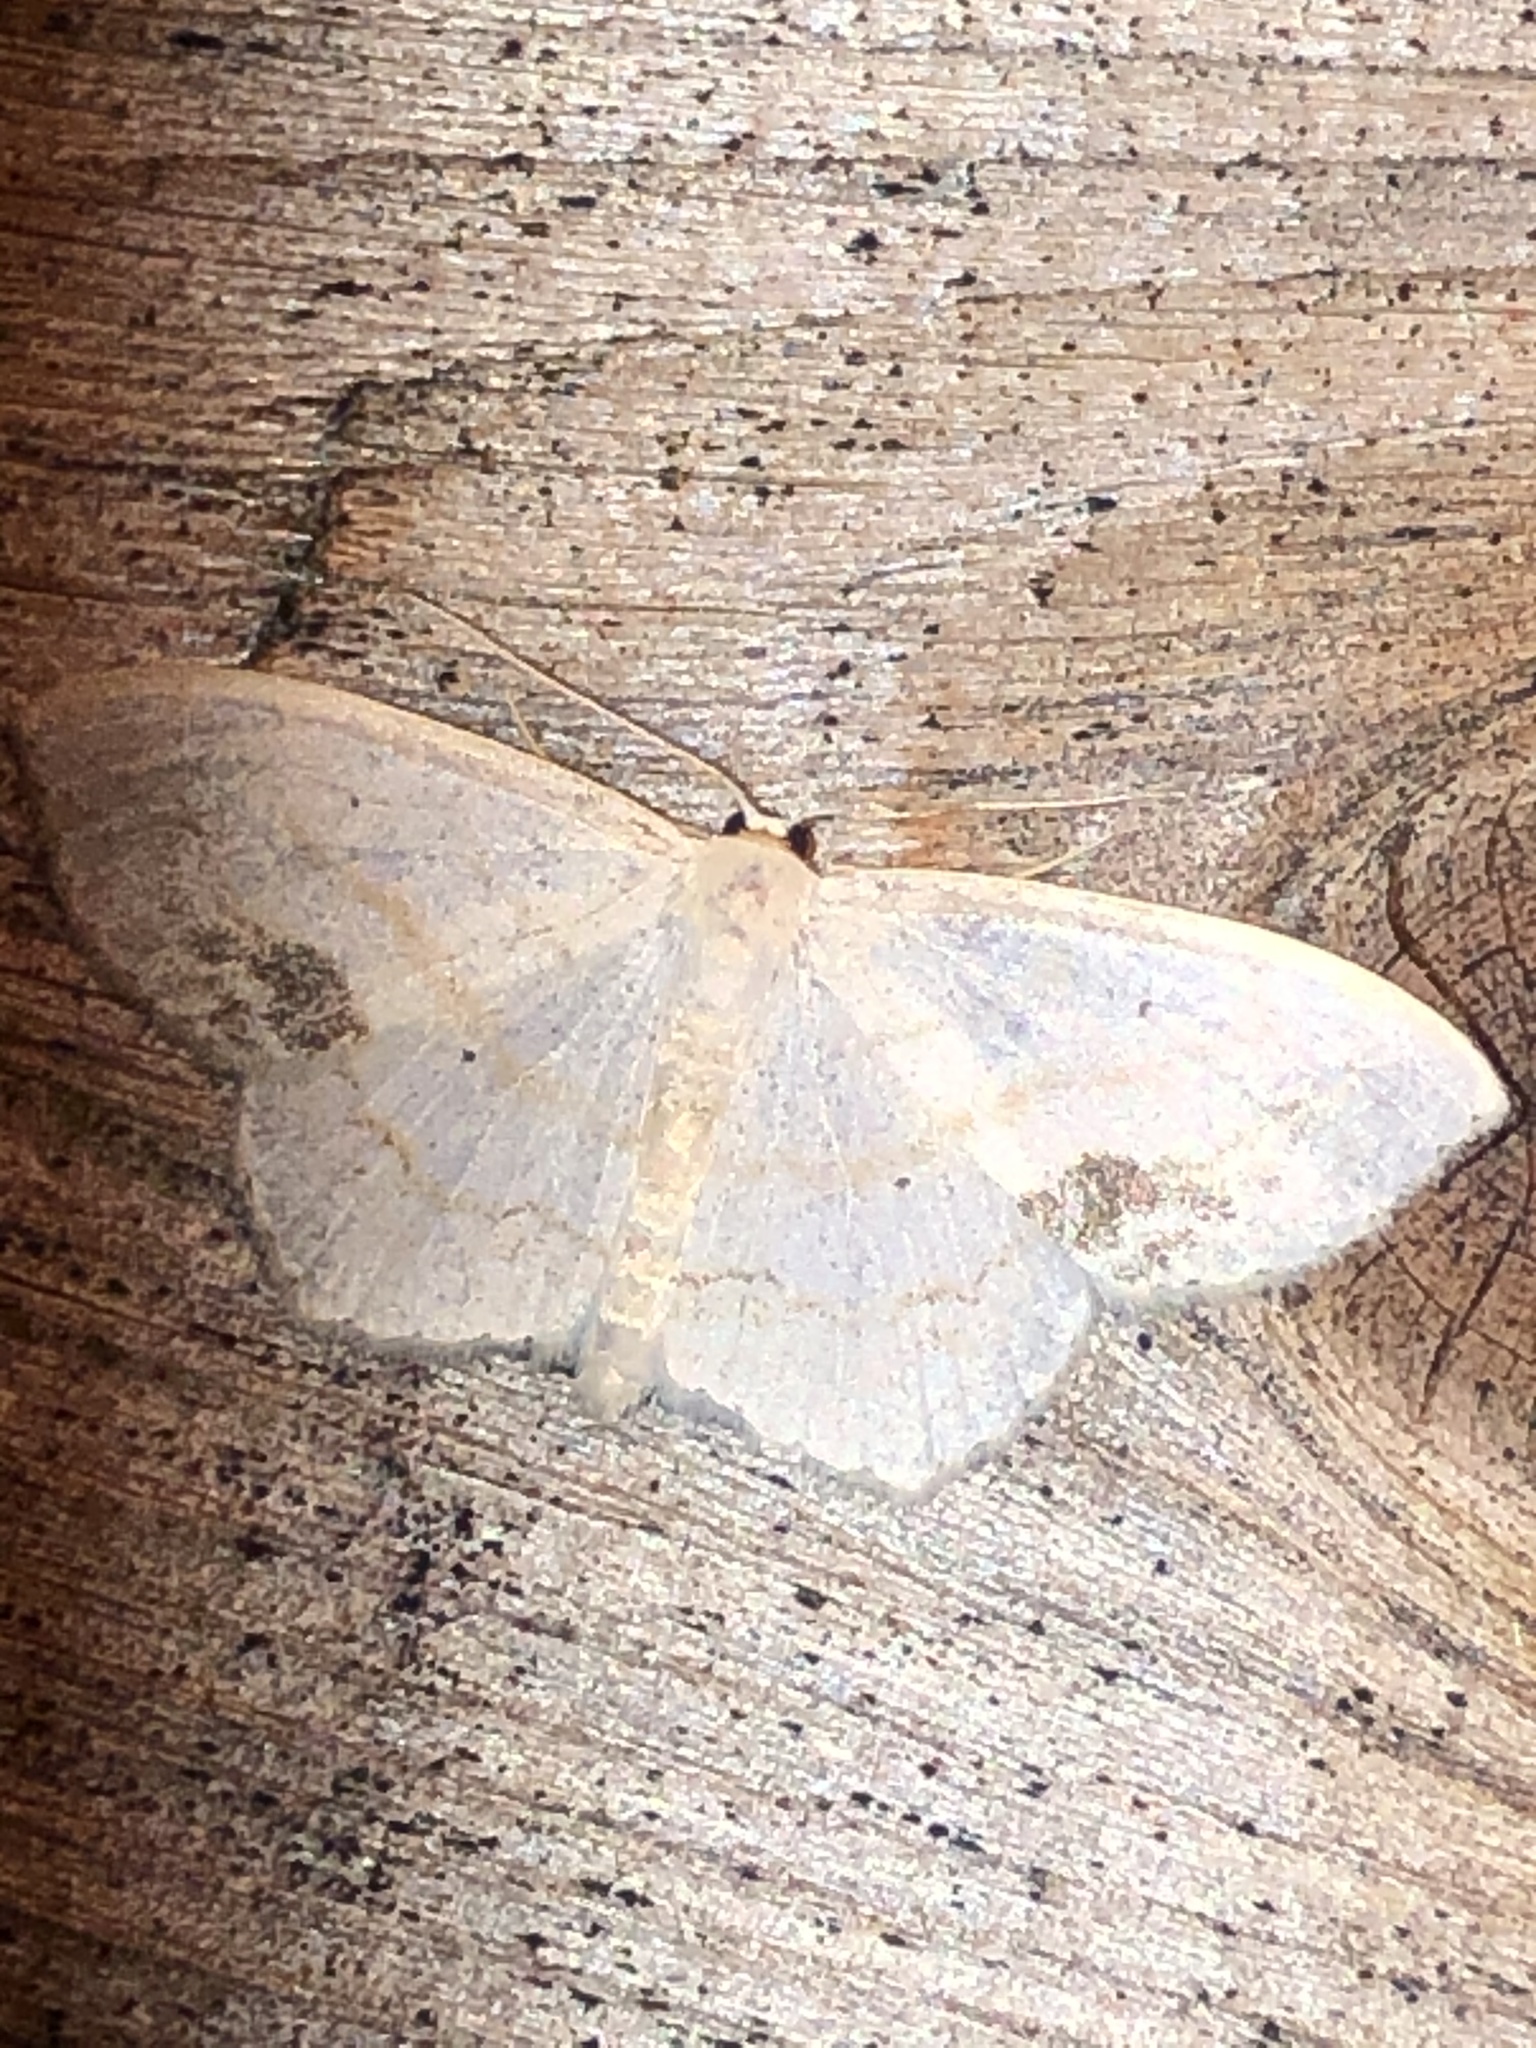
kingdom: Animalia
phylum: Arthropoda
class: Insecta
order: Lepidoptera
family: Geometridae
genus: Scopula
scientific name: Scopula limboundata
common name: Large lace border
